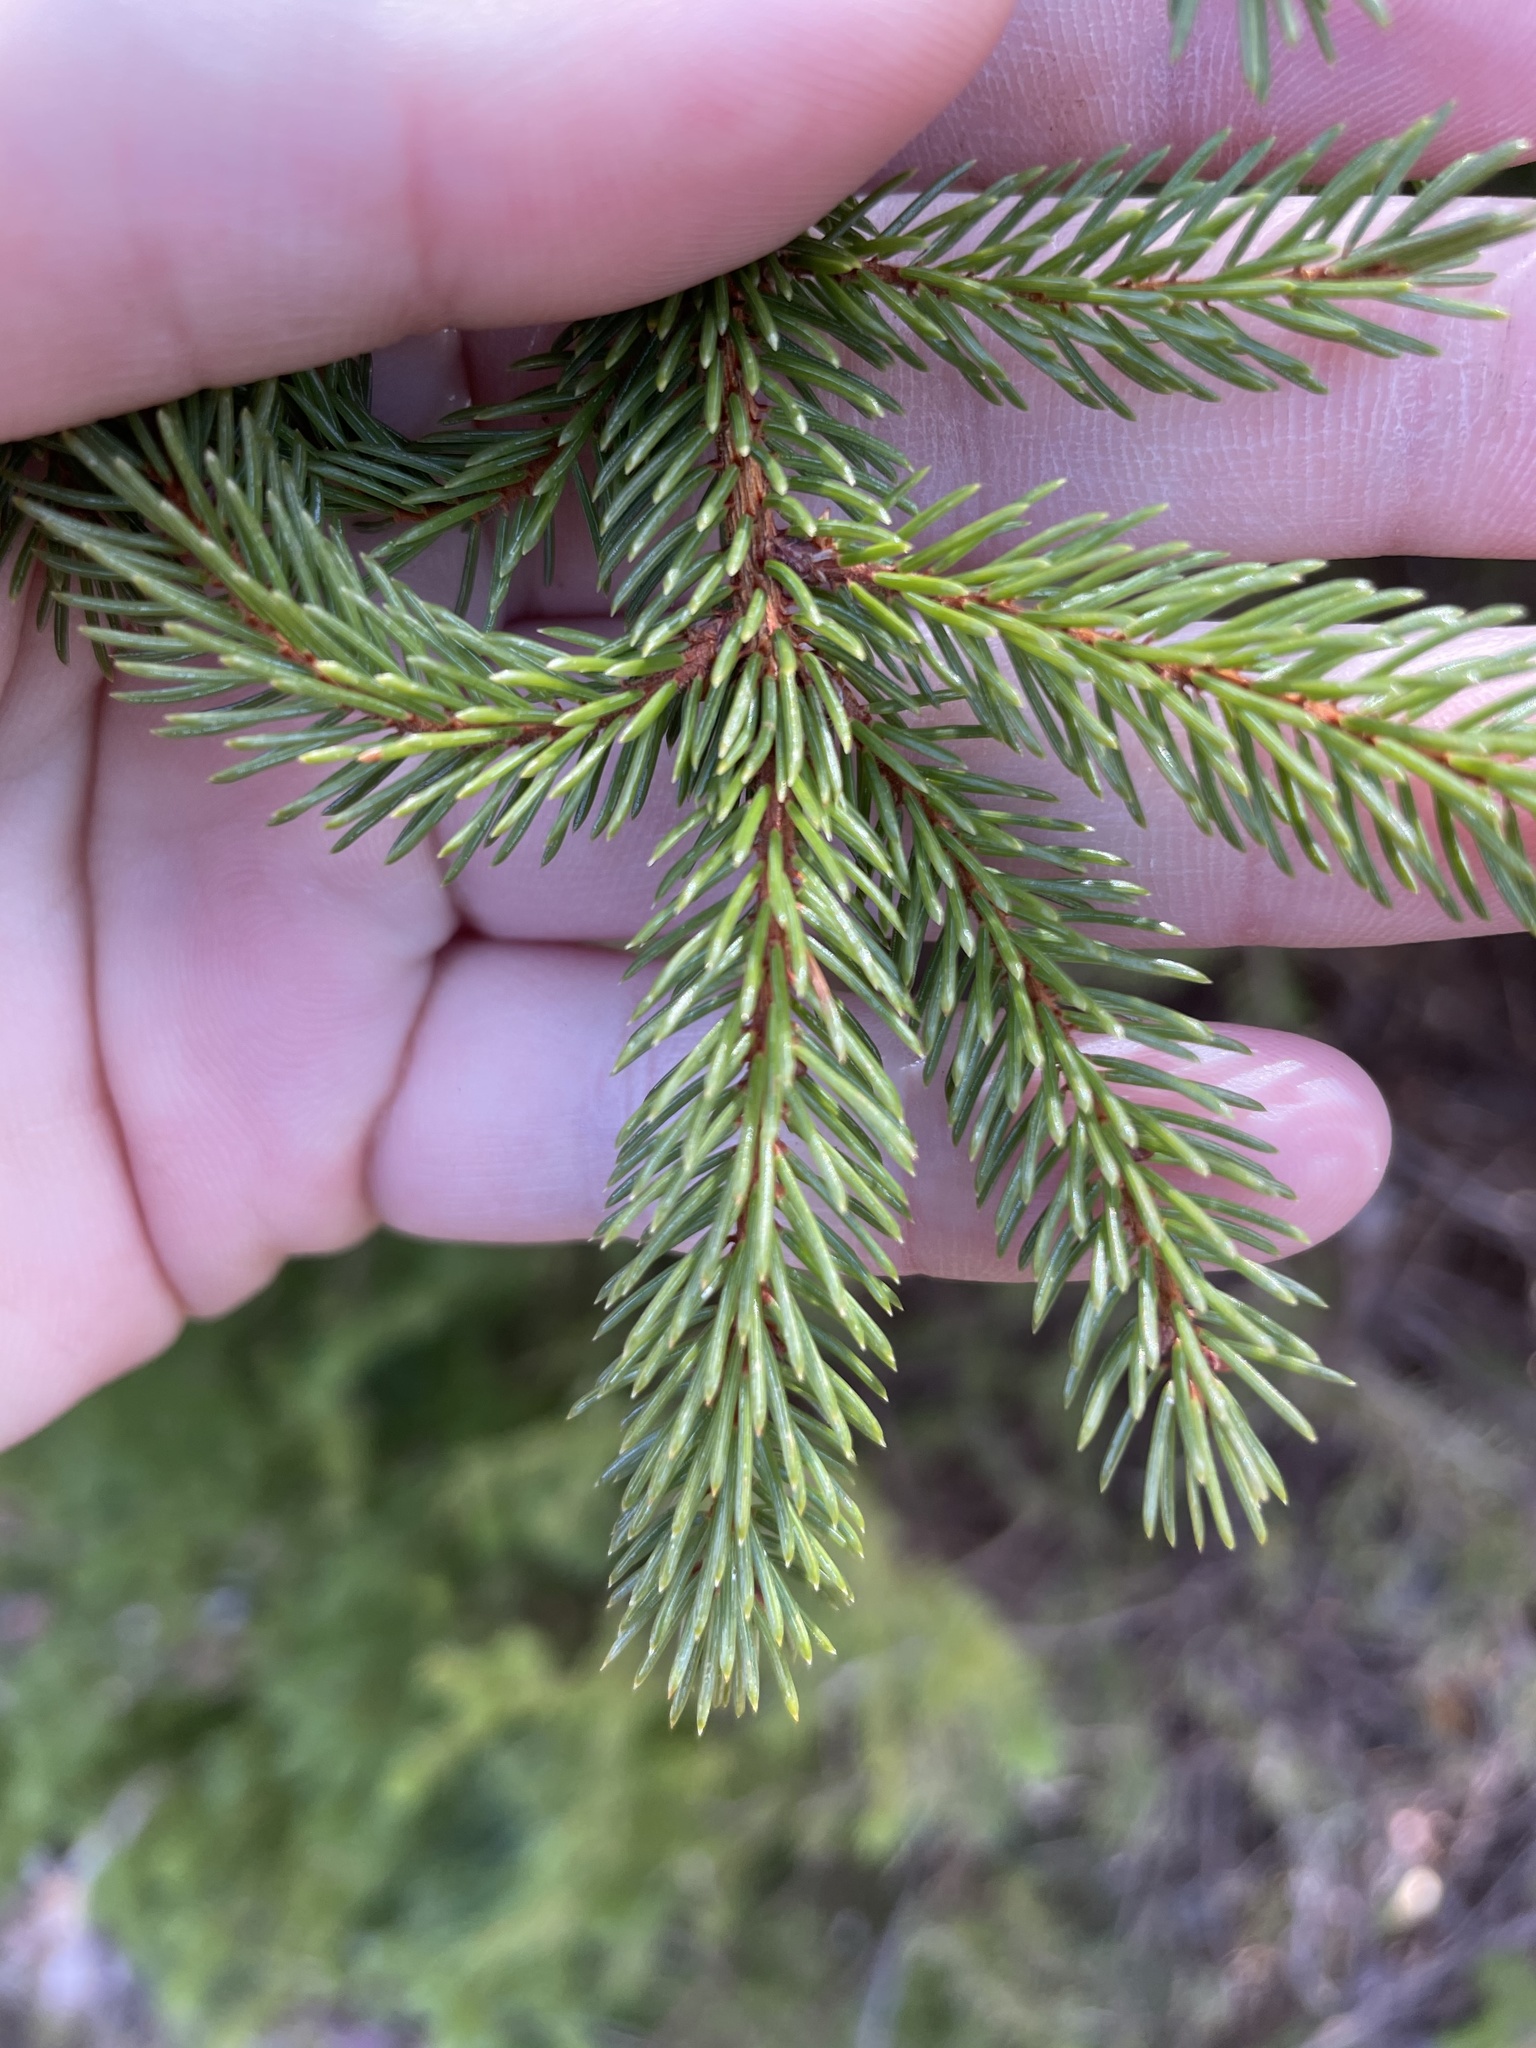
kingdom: Plantae
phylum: Tracheophyta
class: Pinopsida
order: Pinales
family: Pinaceae
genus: Picea
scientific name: Picea glauca
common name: White spruce
